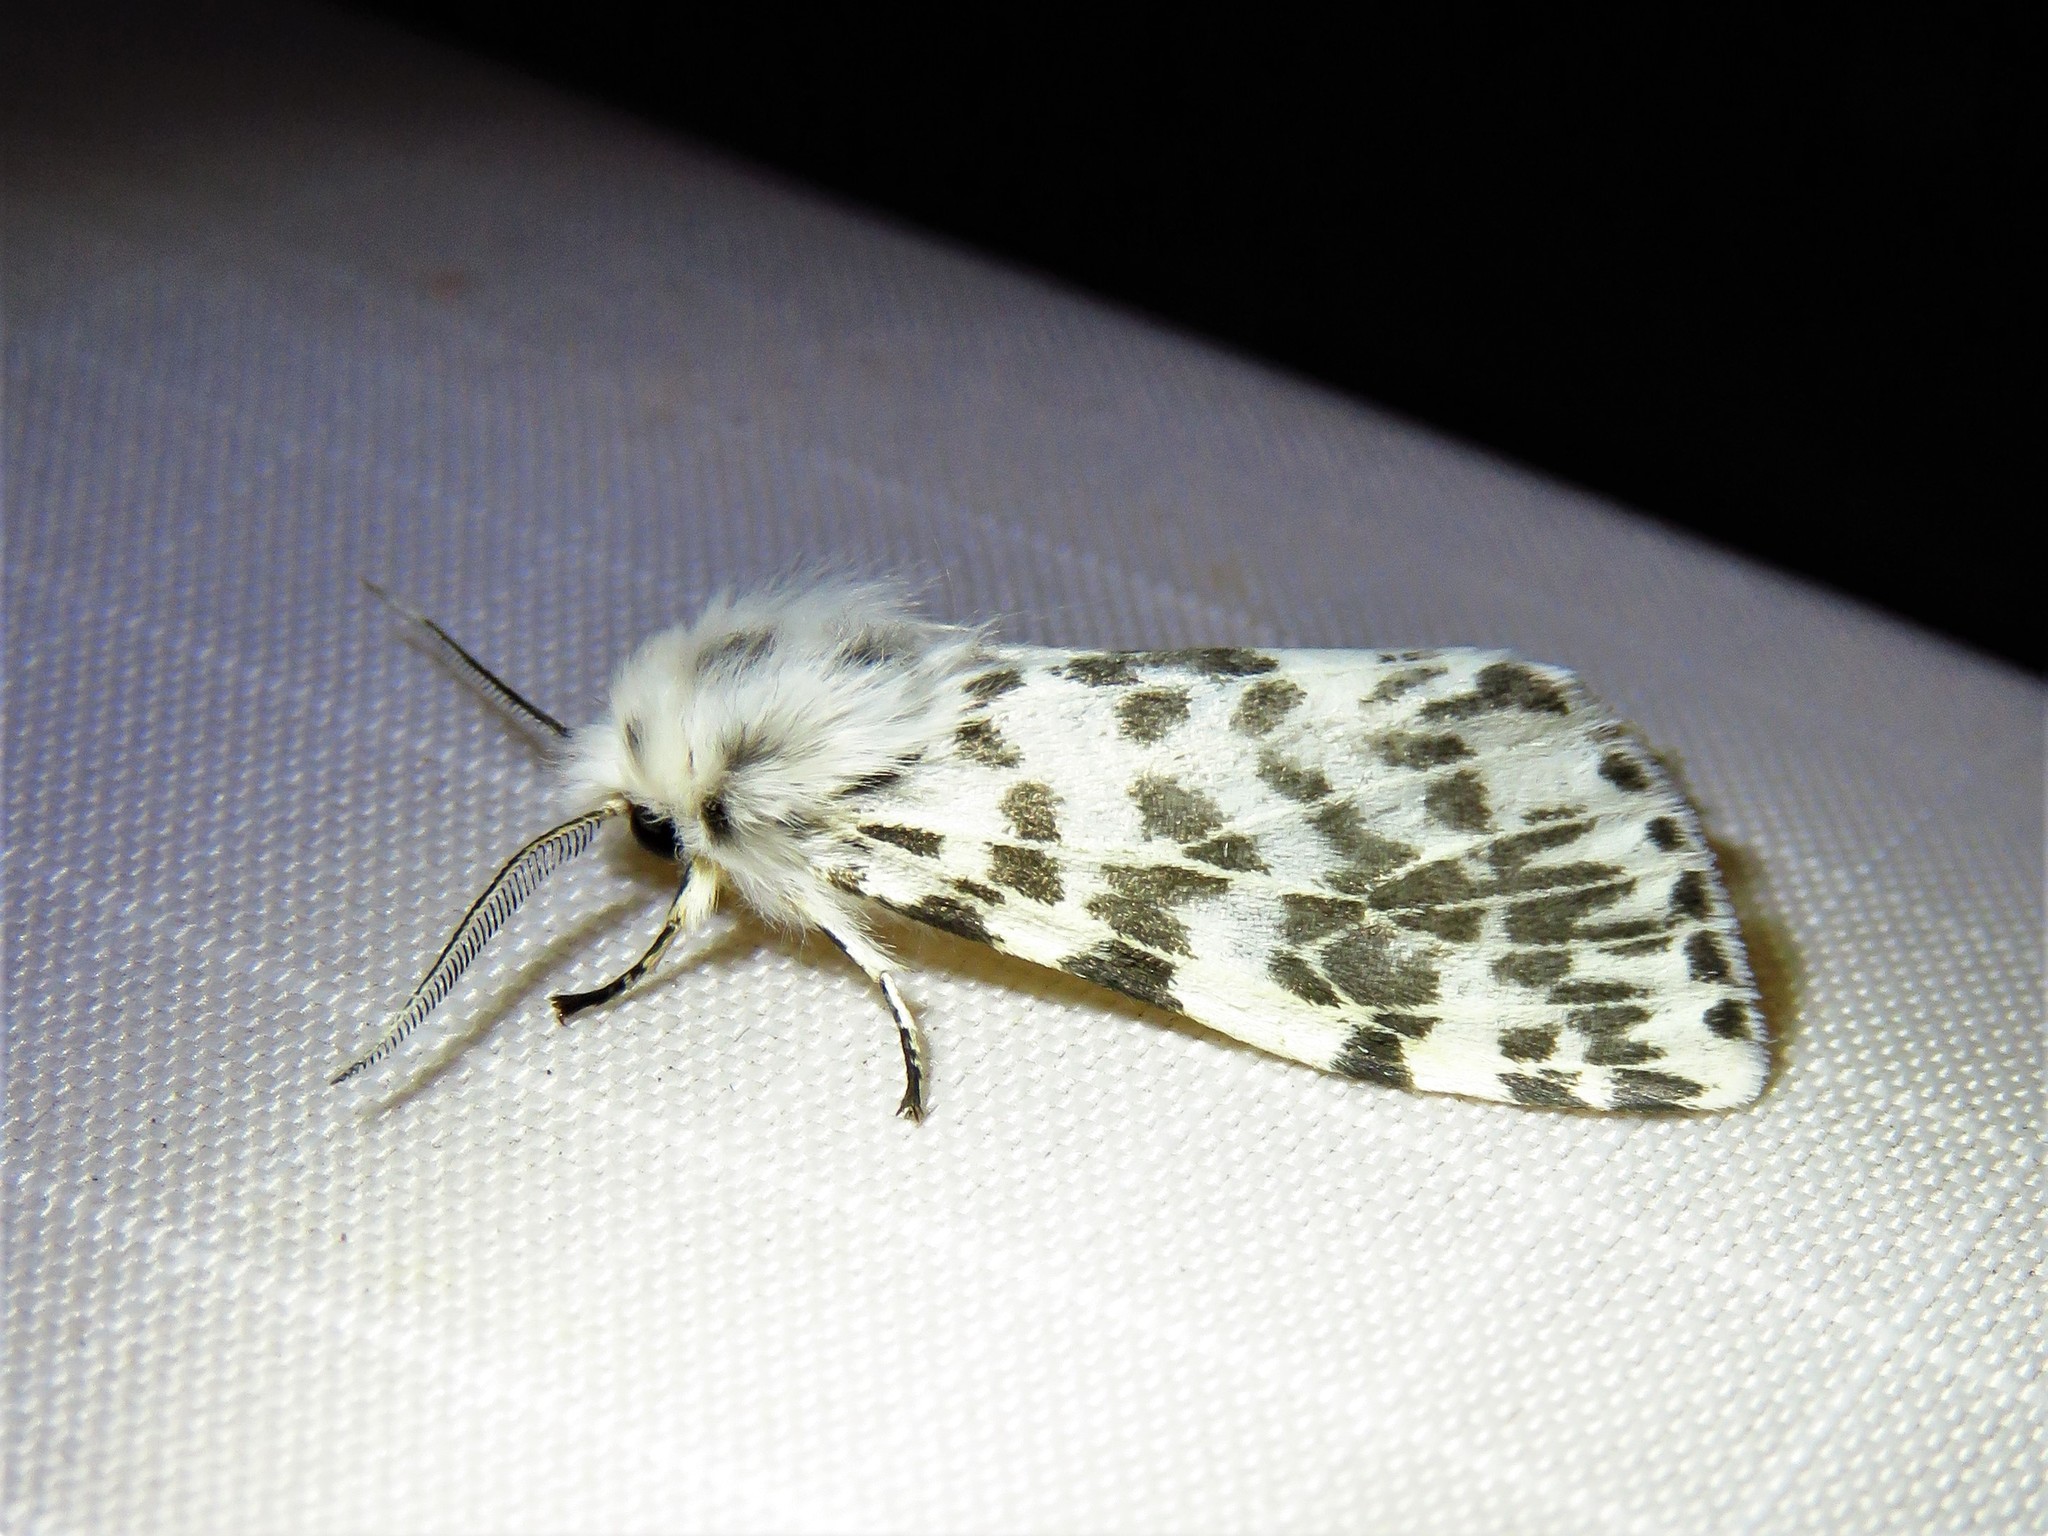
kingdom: Animalia
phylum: Arthropoda
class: Insecta
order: Lepidoptera
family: Erebidae
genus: Hyphantria
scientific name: Hyphantria cunea
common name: American white moth
